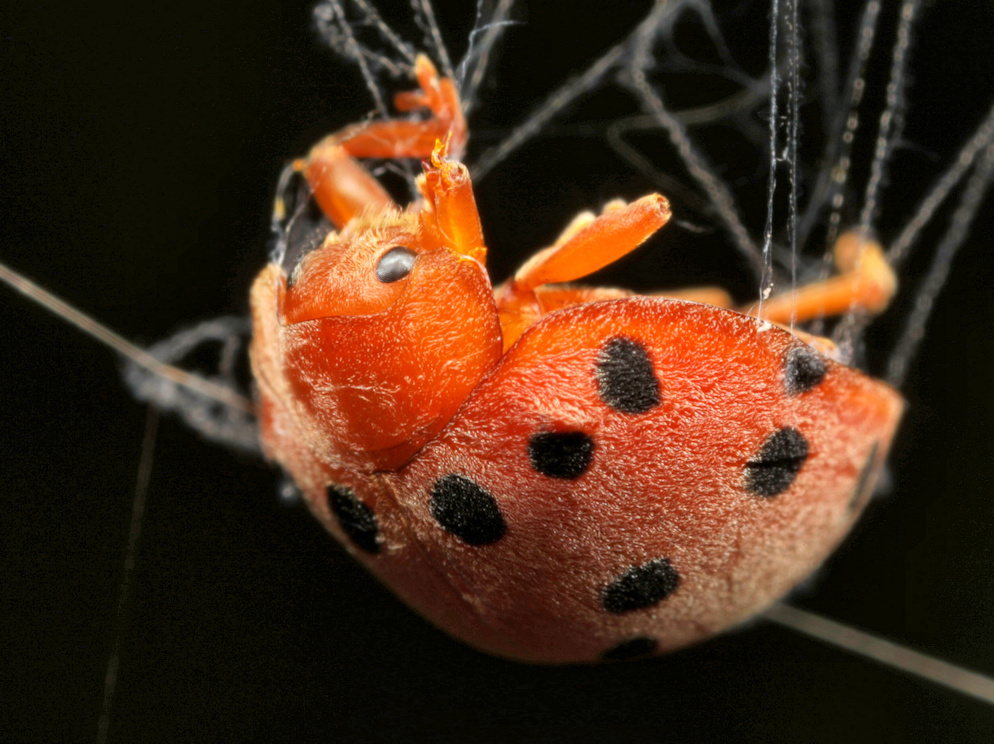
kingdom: Animalia
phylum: Arthropoda
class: Insecta
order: Coleoptera
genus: Solanophila
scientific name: Solanophila
